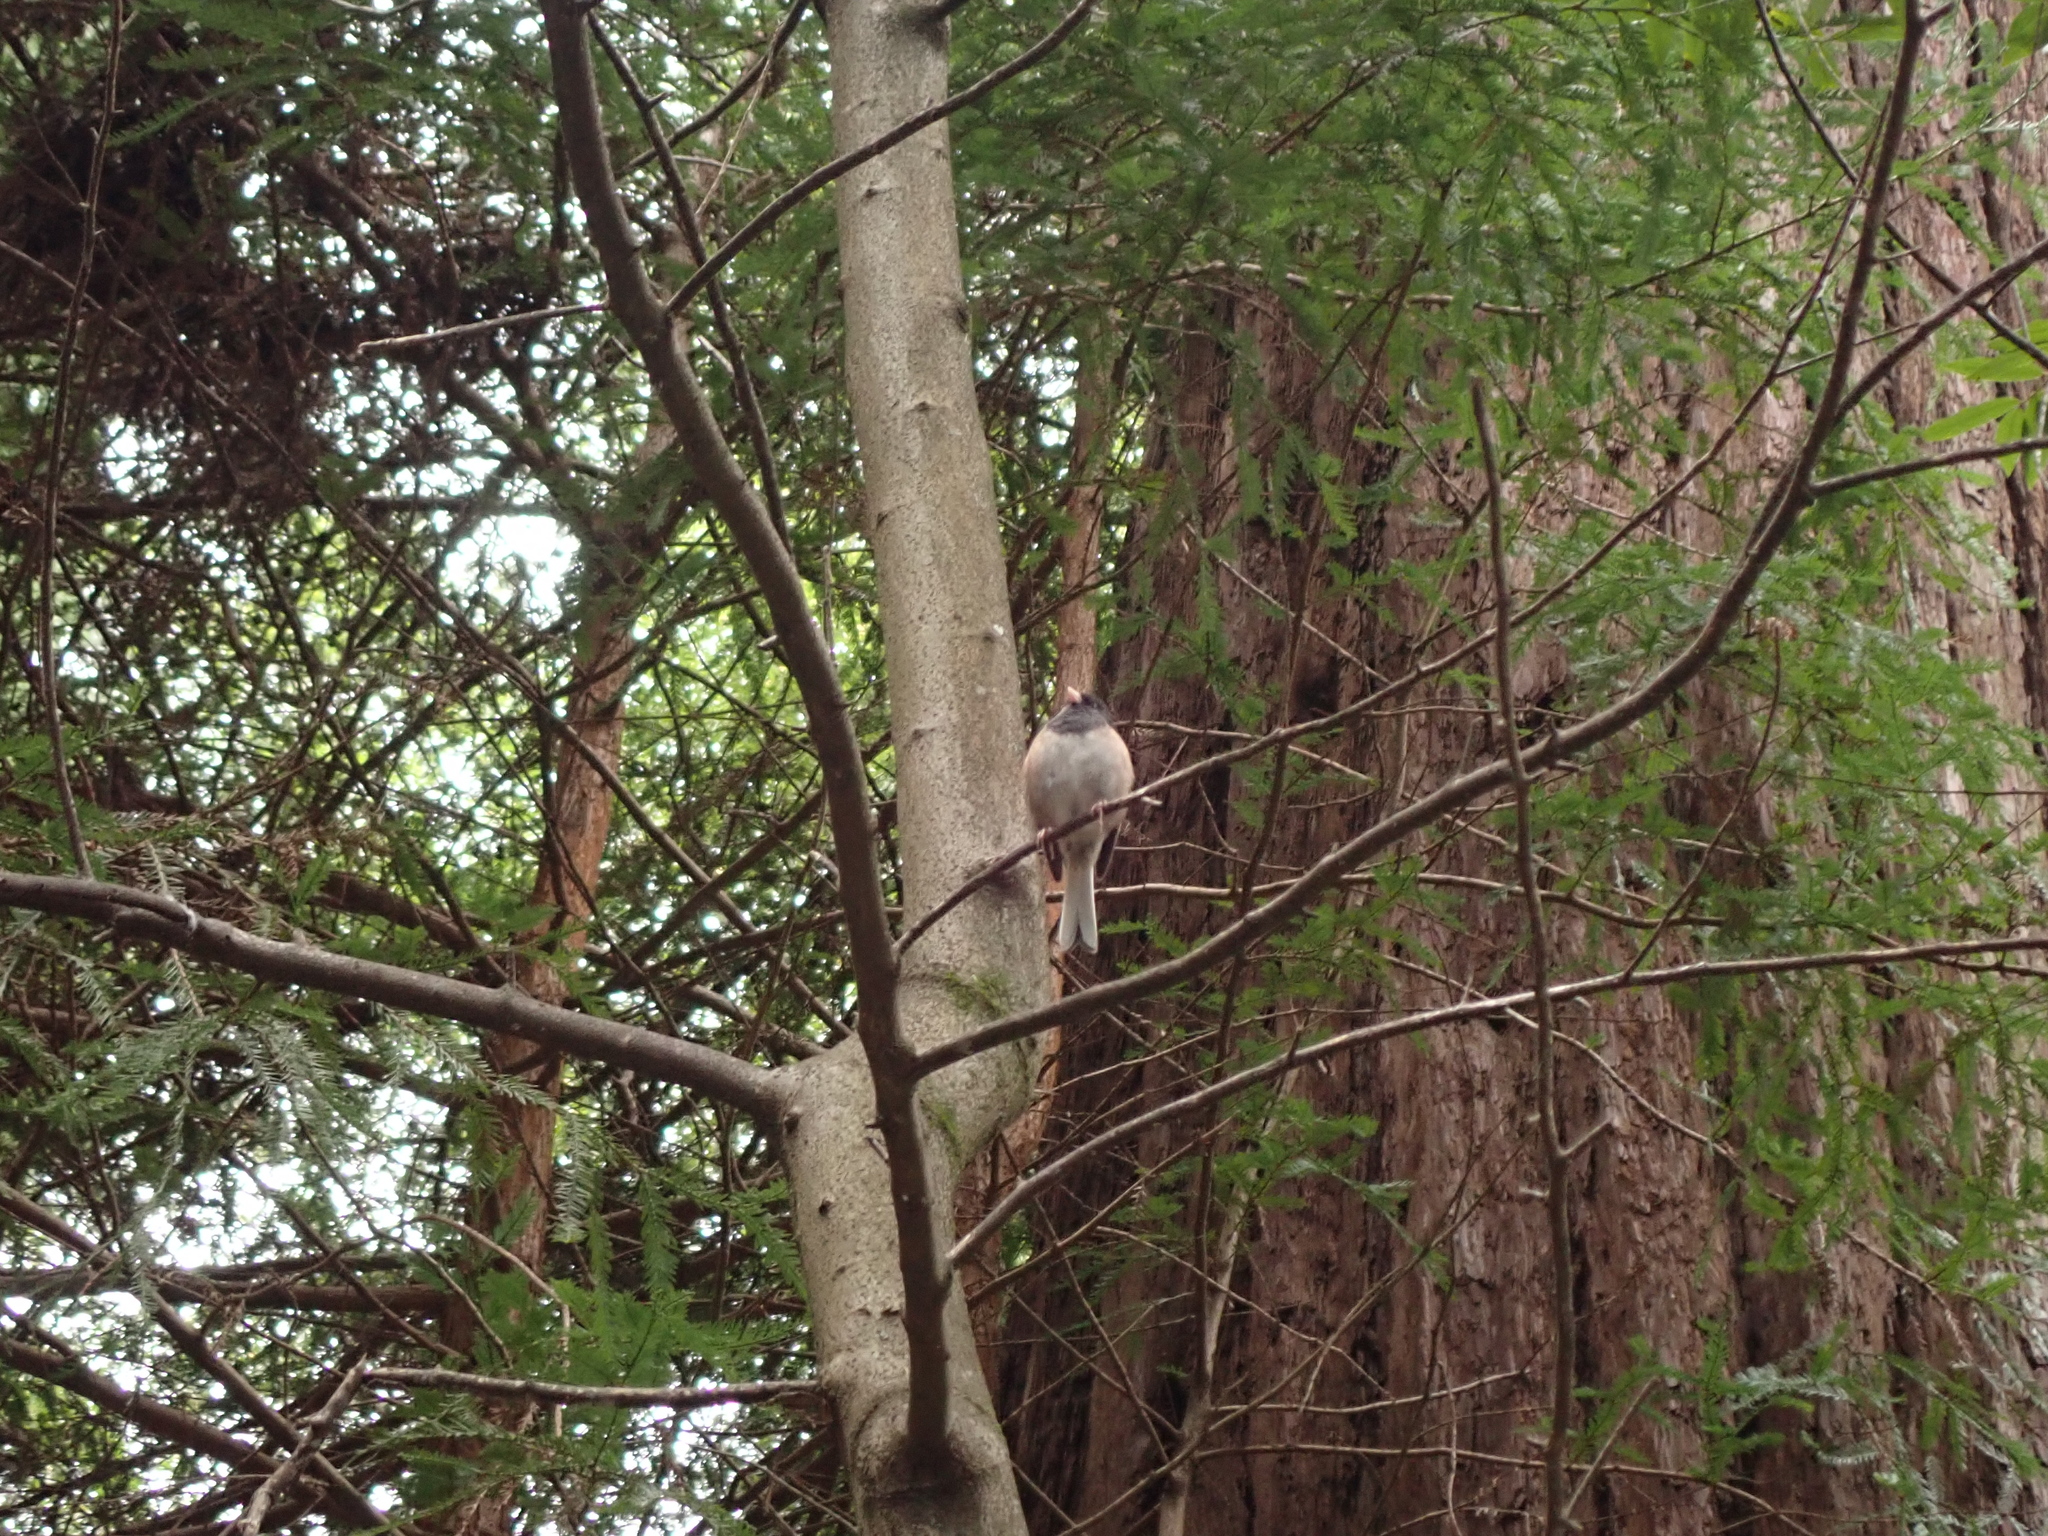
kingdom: Animalia
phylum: Chordata
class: Aves
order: Passeriformes
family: Passerellidae
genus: Junco
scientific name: Junco hyemalis
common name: Dark-eyed junco
